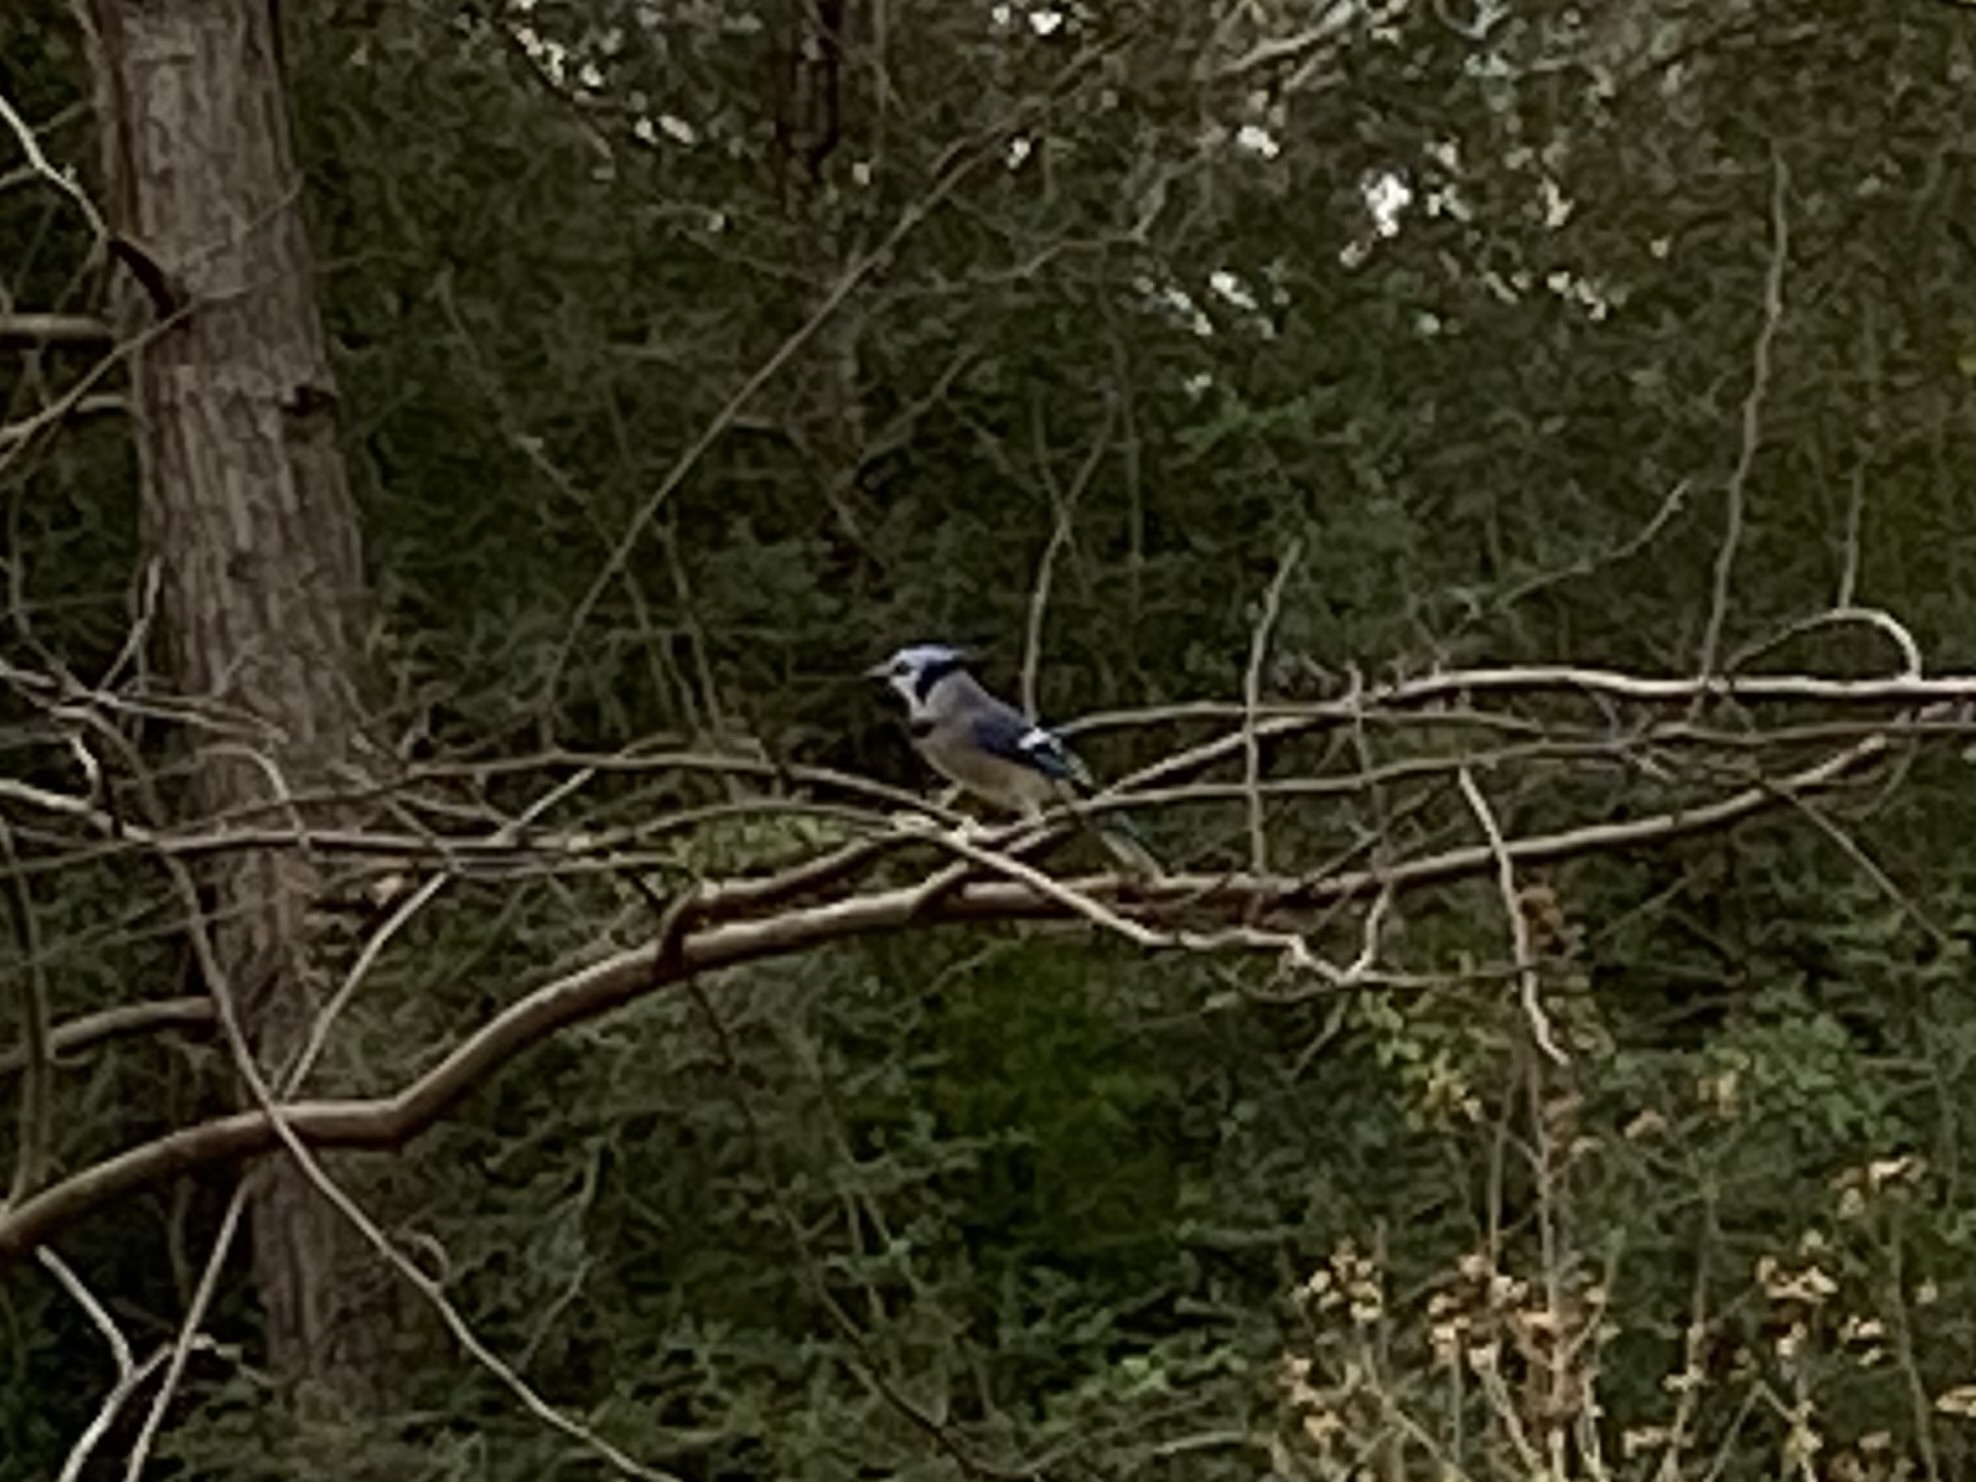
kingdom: Animalia
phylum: Chordata
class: Aves
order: Passeriformes
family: Corvidae
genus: Cyanocitta
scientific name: Cyanocitta cristata
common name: Blue jay
